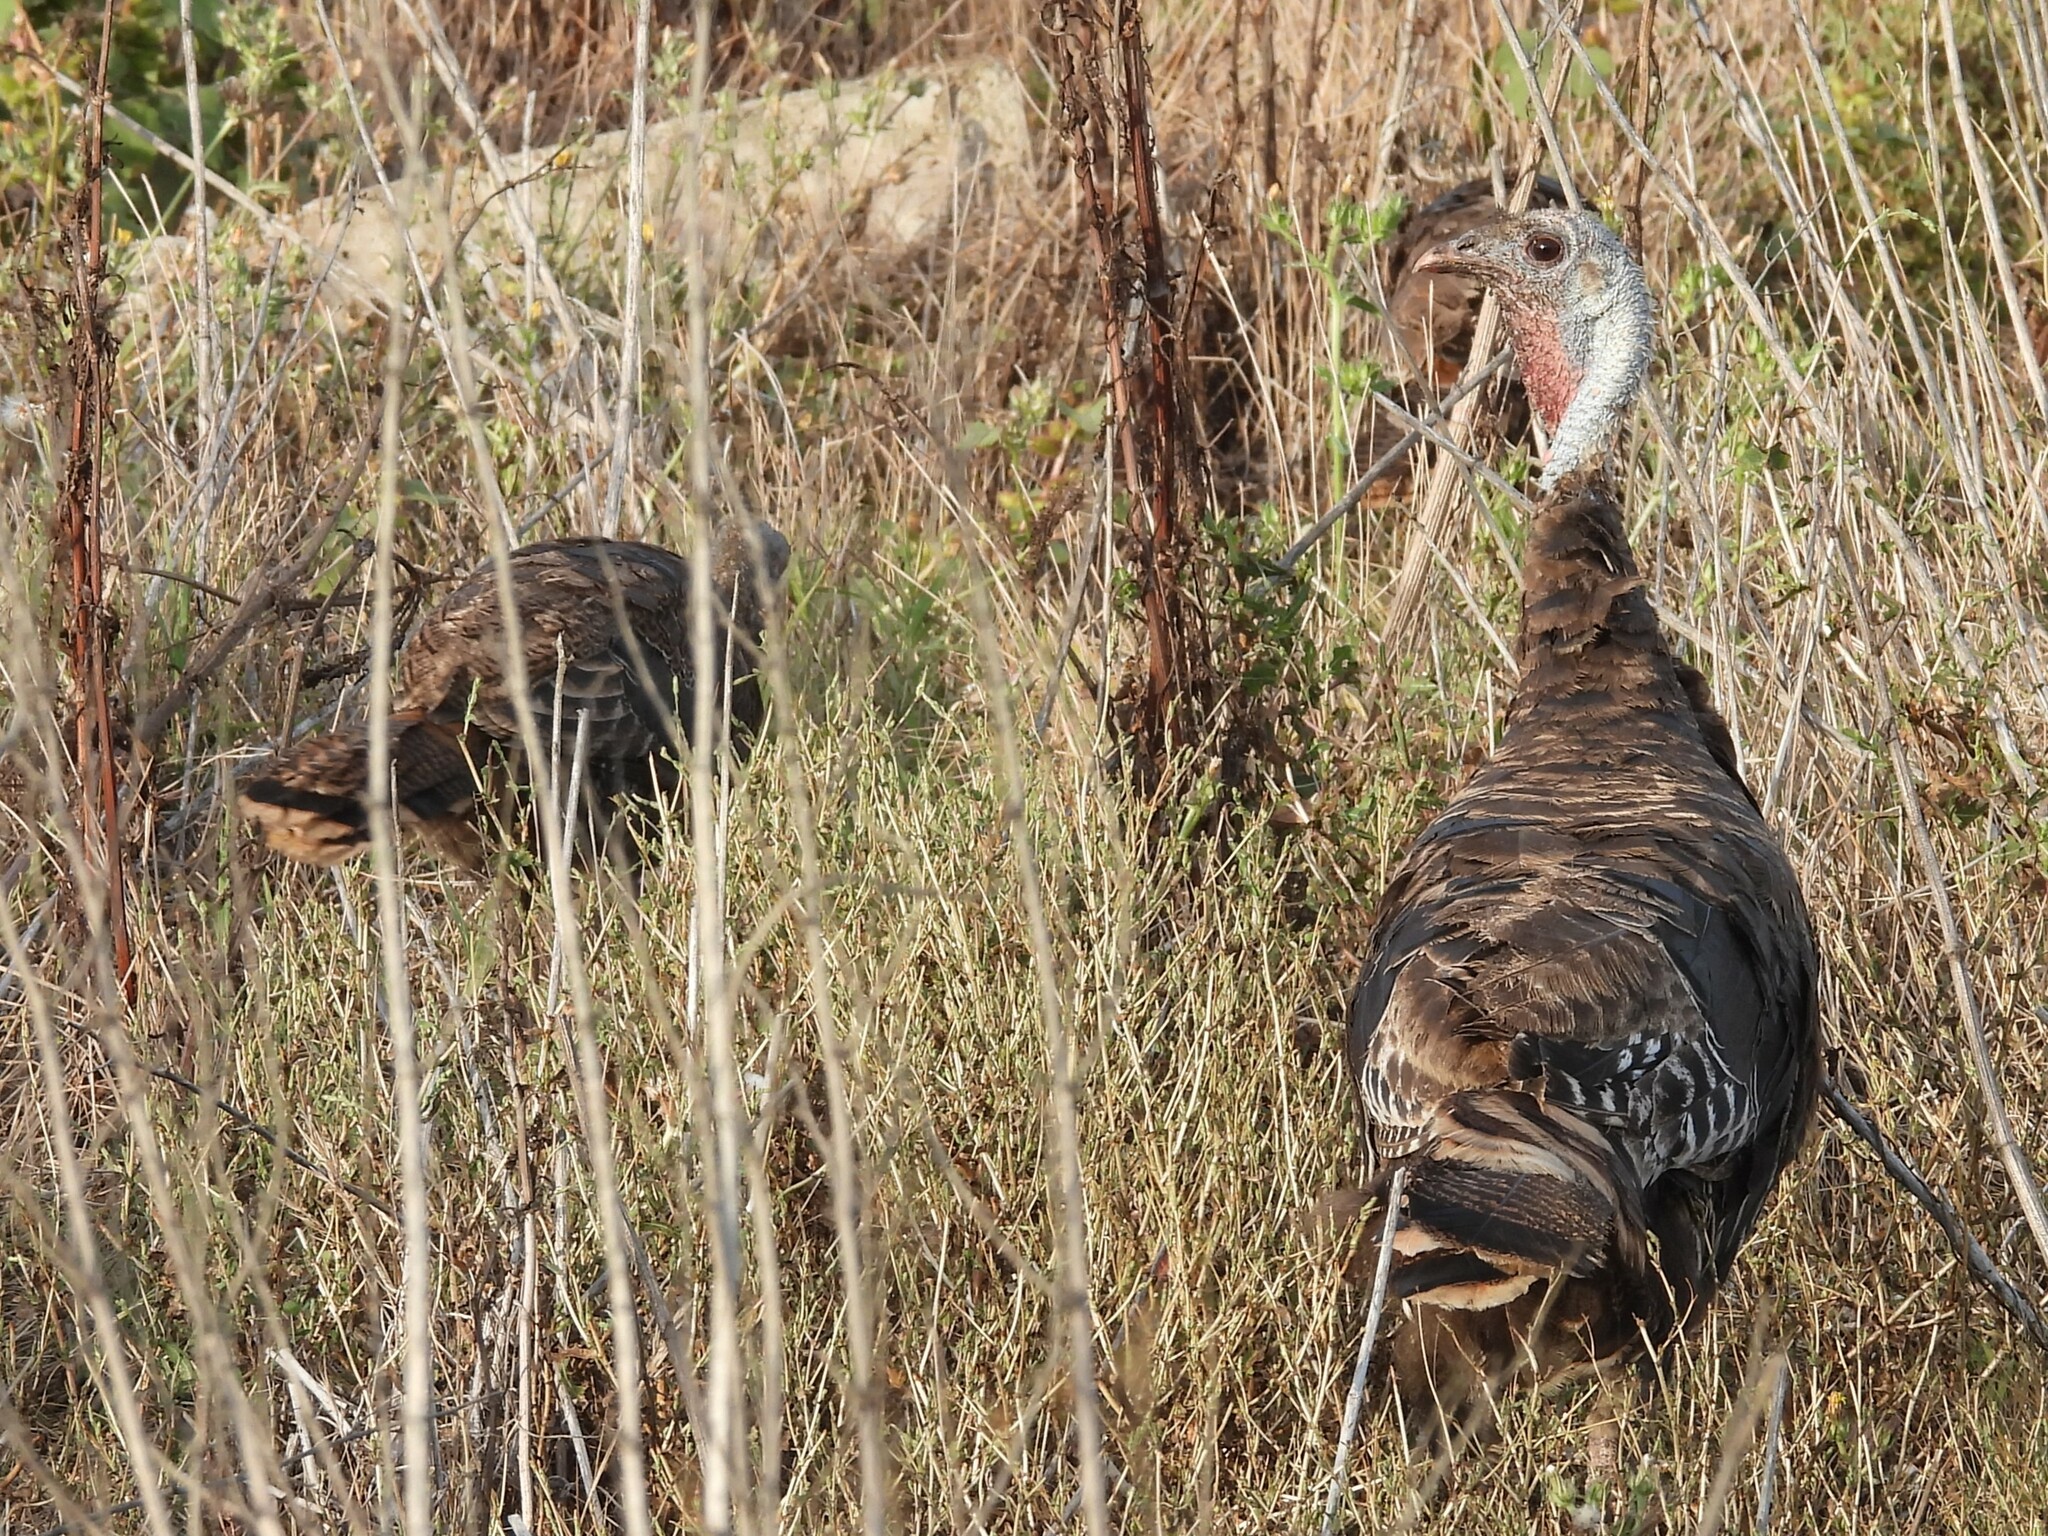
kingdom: Animalia
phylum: Chordata
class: Aves
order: Galliformes
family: Phasianidae
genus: Meleagris
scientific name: Meleagris gallopavo
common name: Wild turkey
